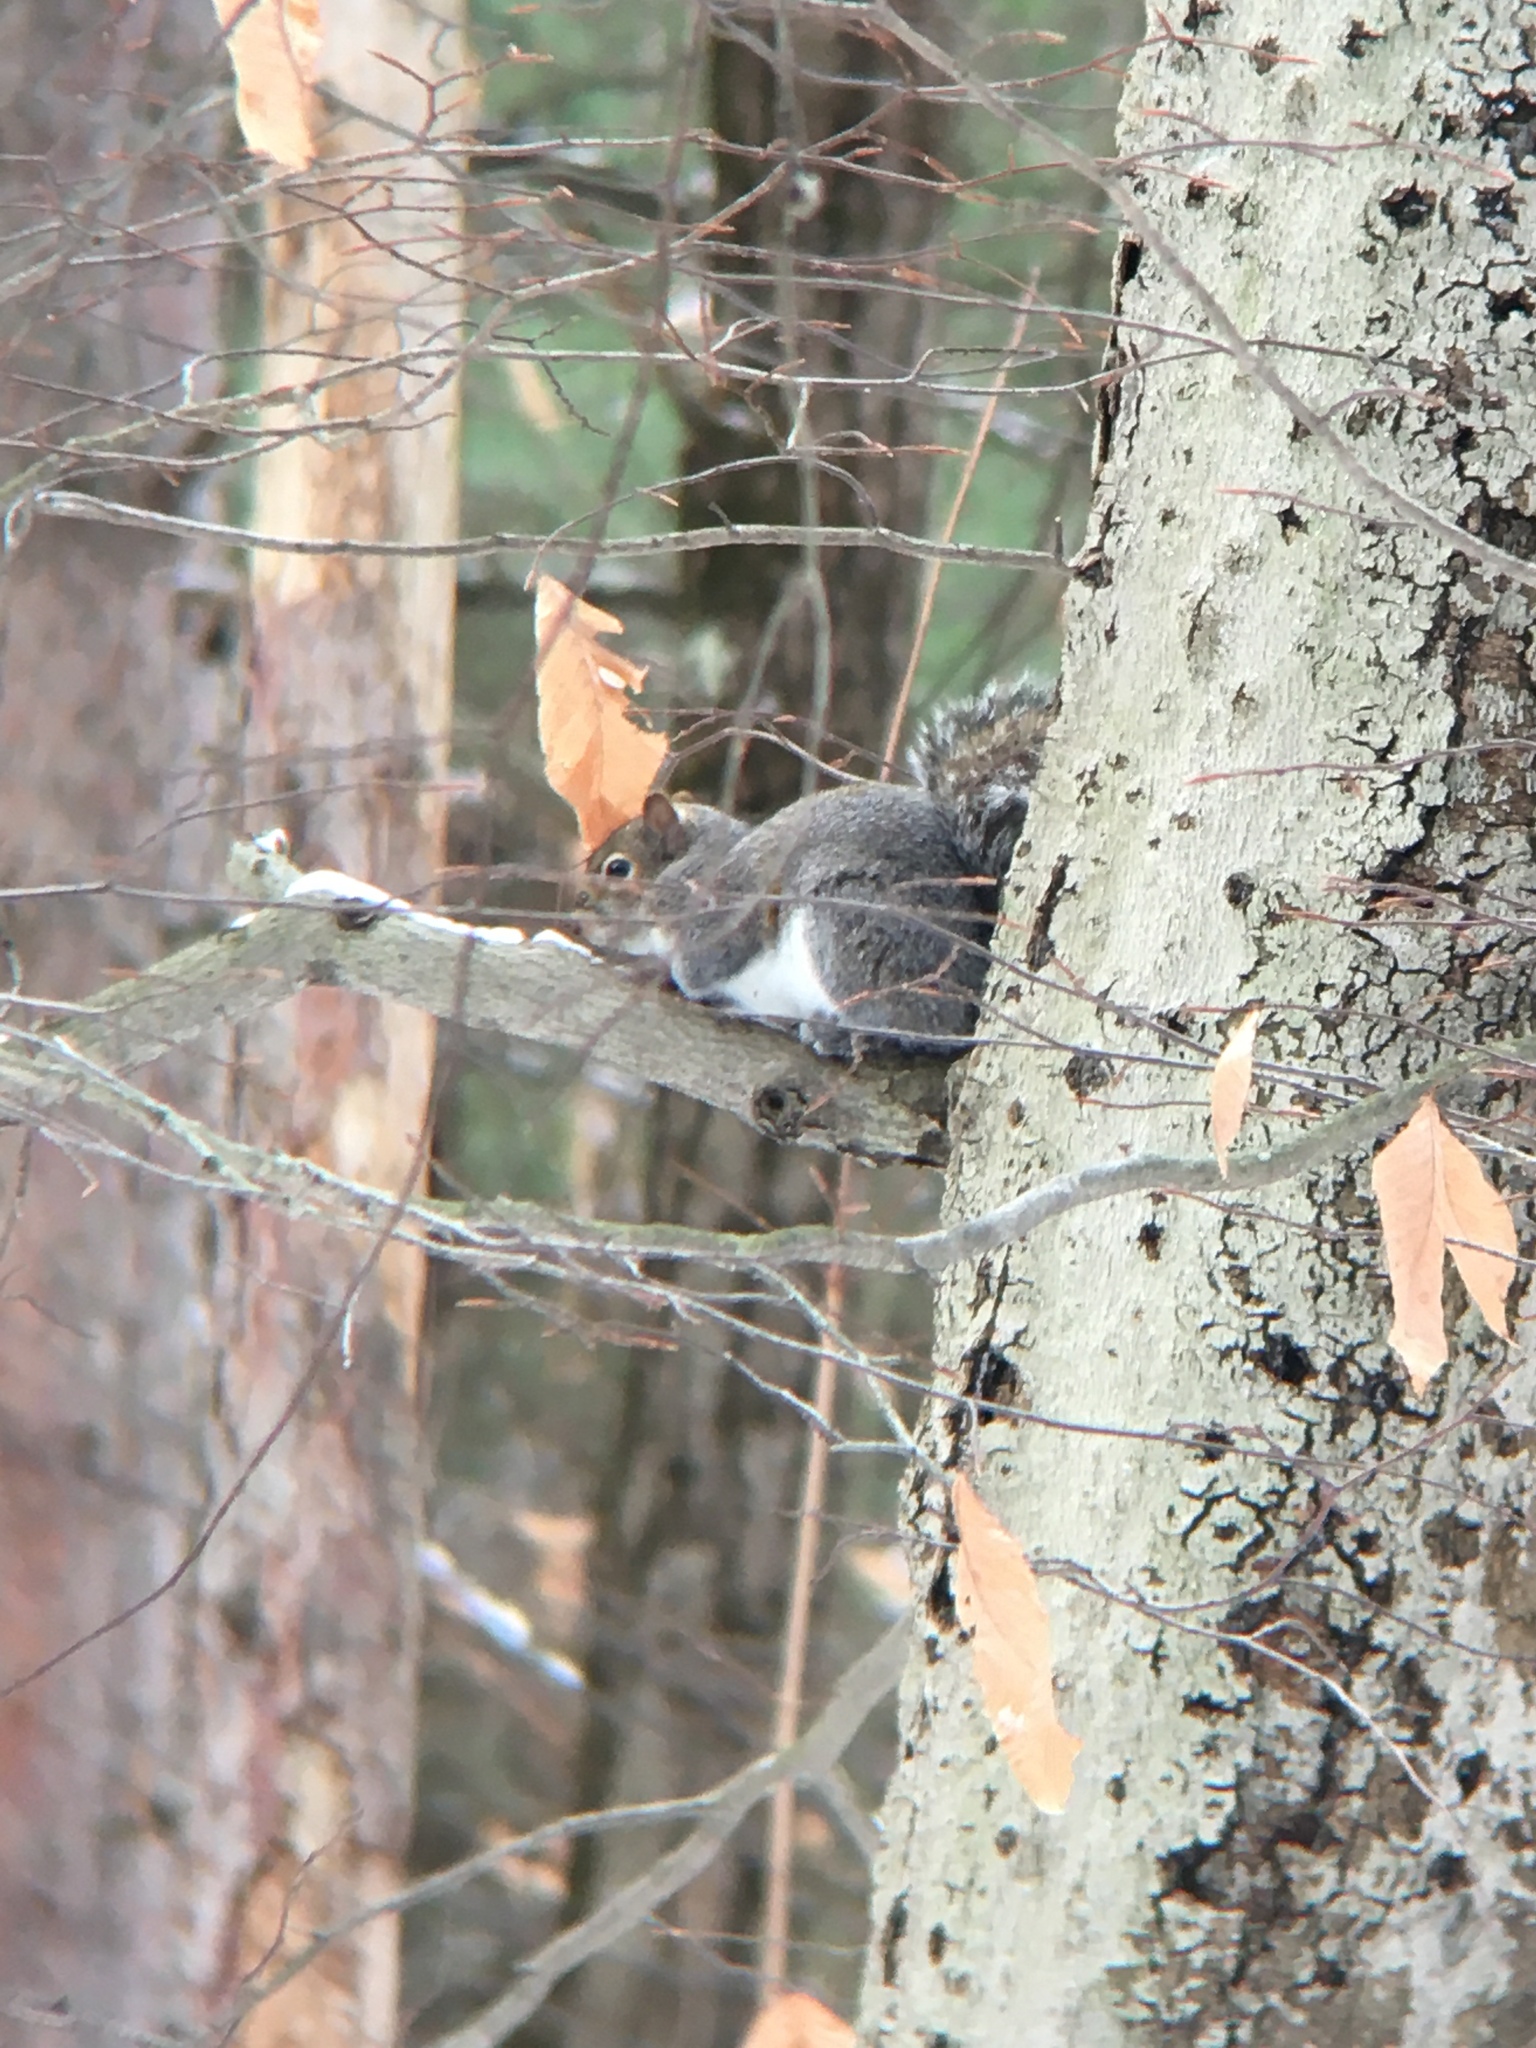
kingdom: Animalia
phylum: Chordata
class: Mammalia
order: Rodentia
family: Sciuridae
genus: Sciurus
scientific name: Sciurus carolinensis
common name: Eastern gray squirrel
